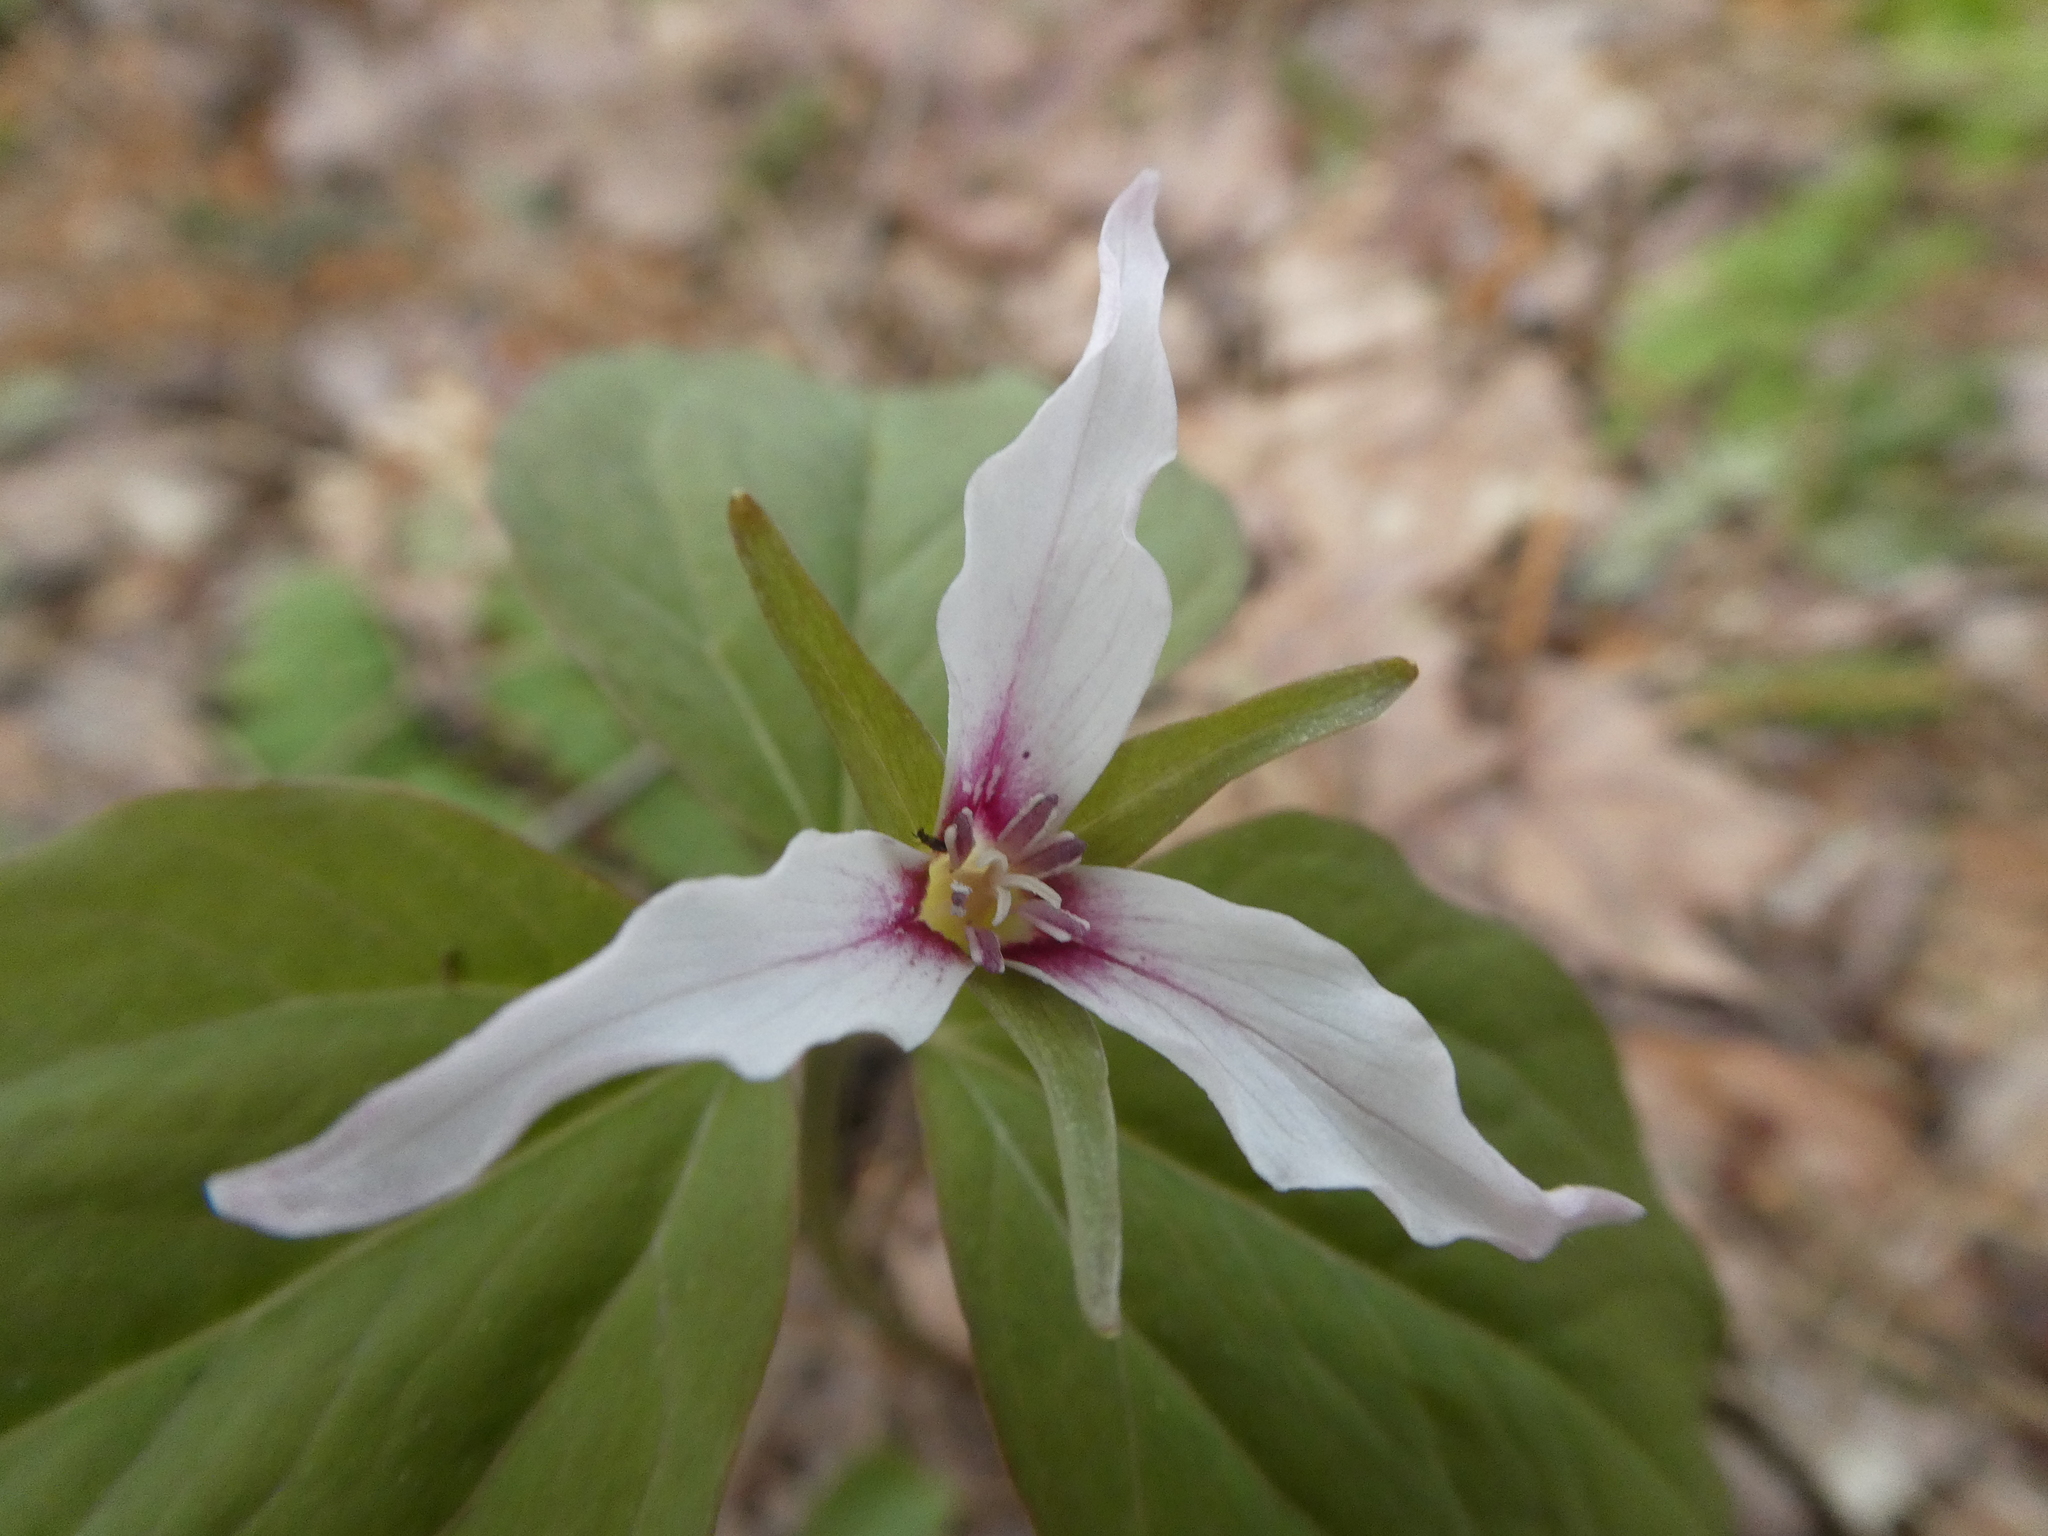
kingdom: Plantae
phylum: Tracheophyta
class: Liliopsida
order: Liliales
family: Melanthiaceae
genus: Trillium
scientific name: Trillium undulatum
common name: Paint trillium
